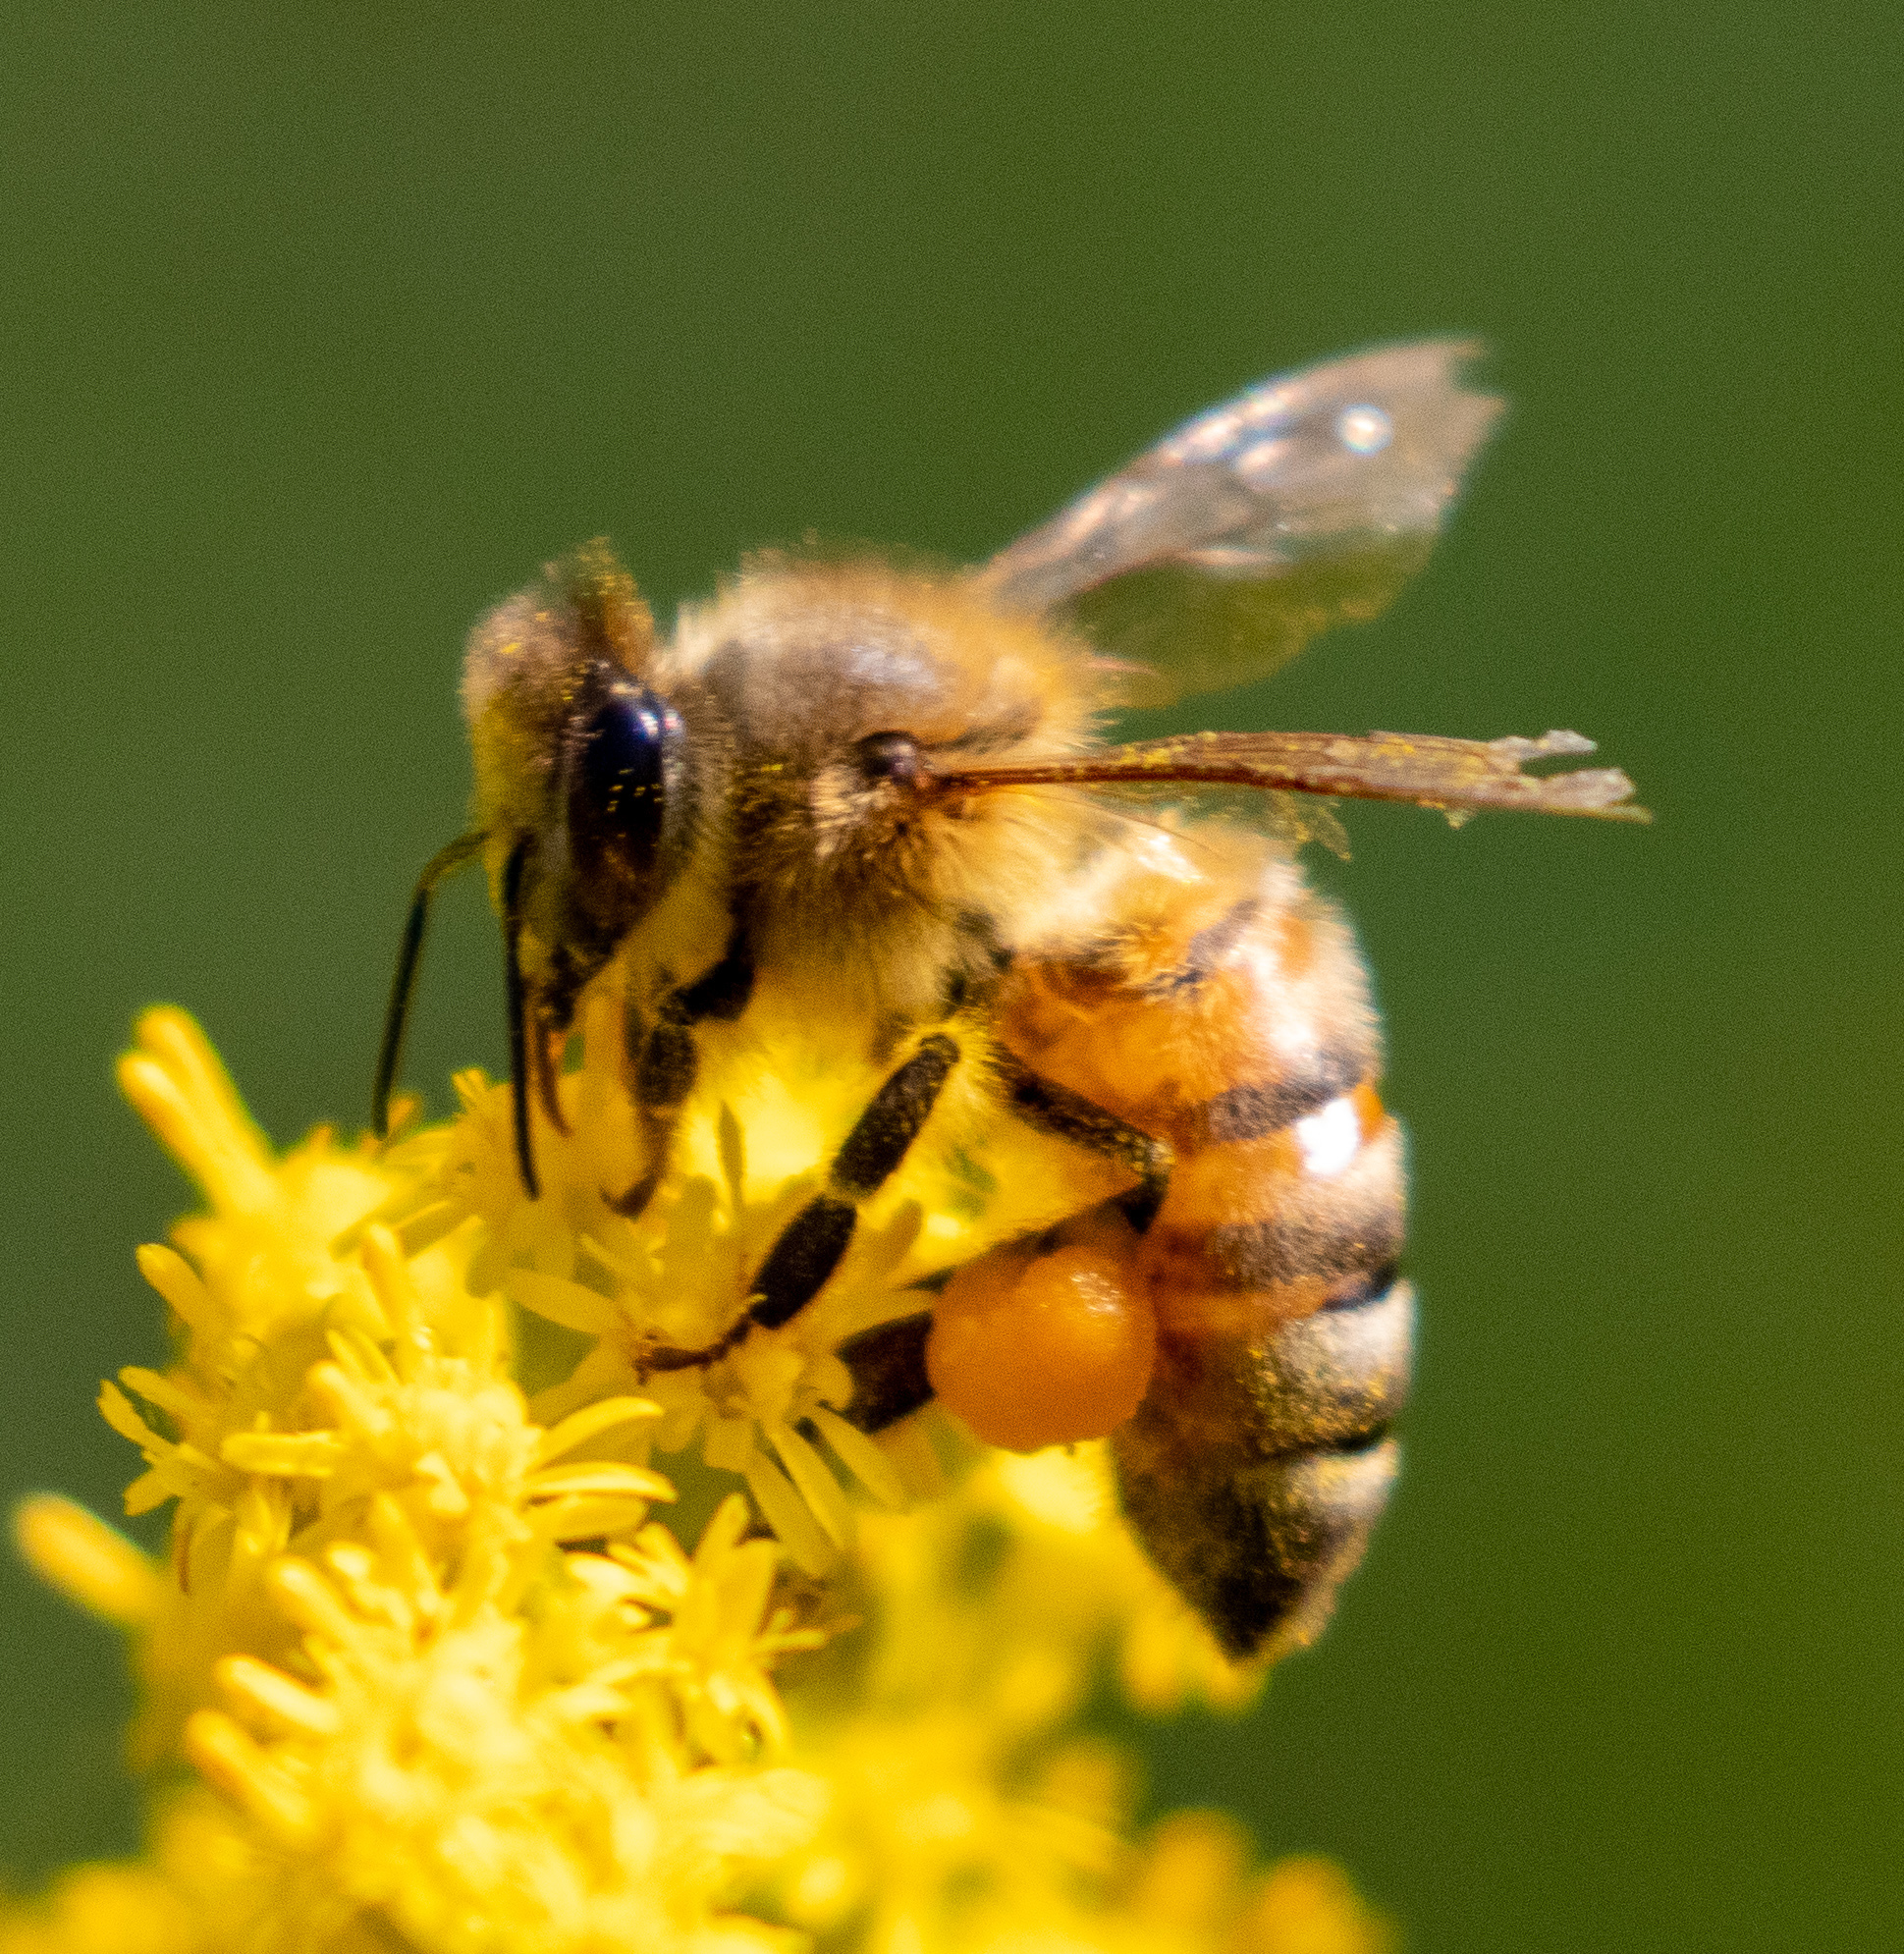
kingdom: Animalia
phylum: Arthropoda
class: Insecta
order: Hymenoptera
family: Apidae
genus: Apis
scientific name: Apis mellifera
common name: Honey bee
